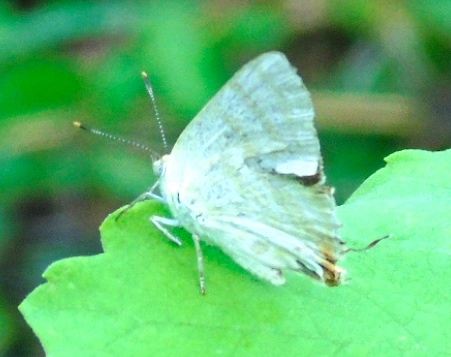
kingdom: Animalia
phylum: Arthropoda
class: Insecta
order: Lepidoptera
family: Lycaenidae
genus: Dolymorpha
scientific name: Dolymorpha jada
